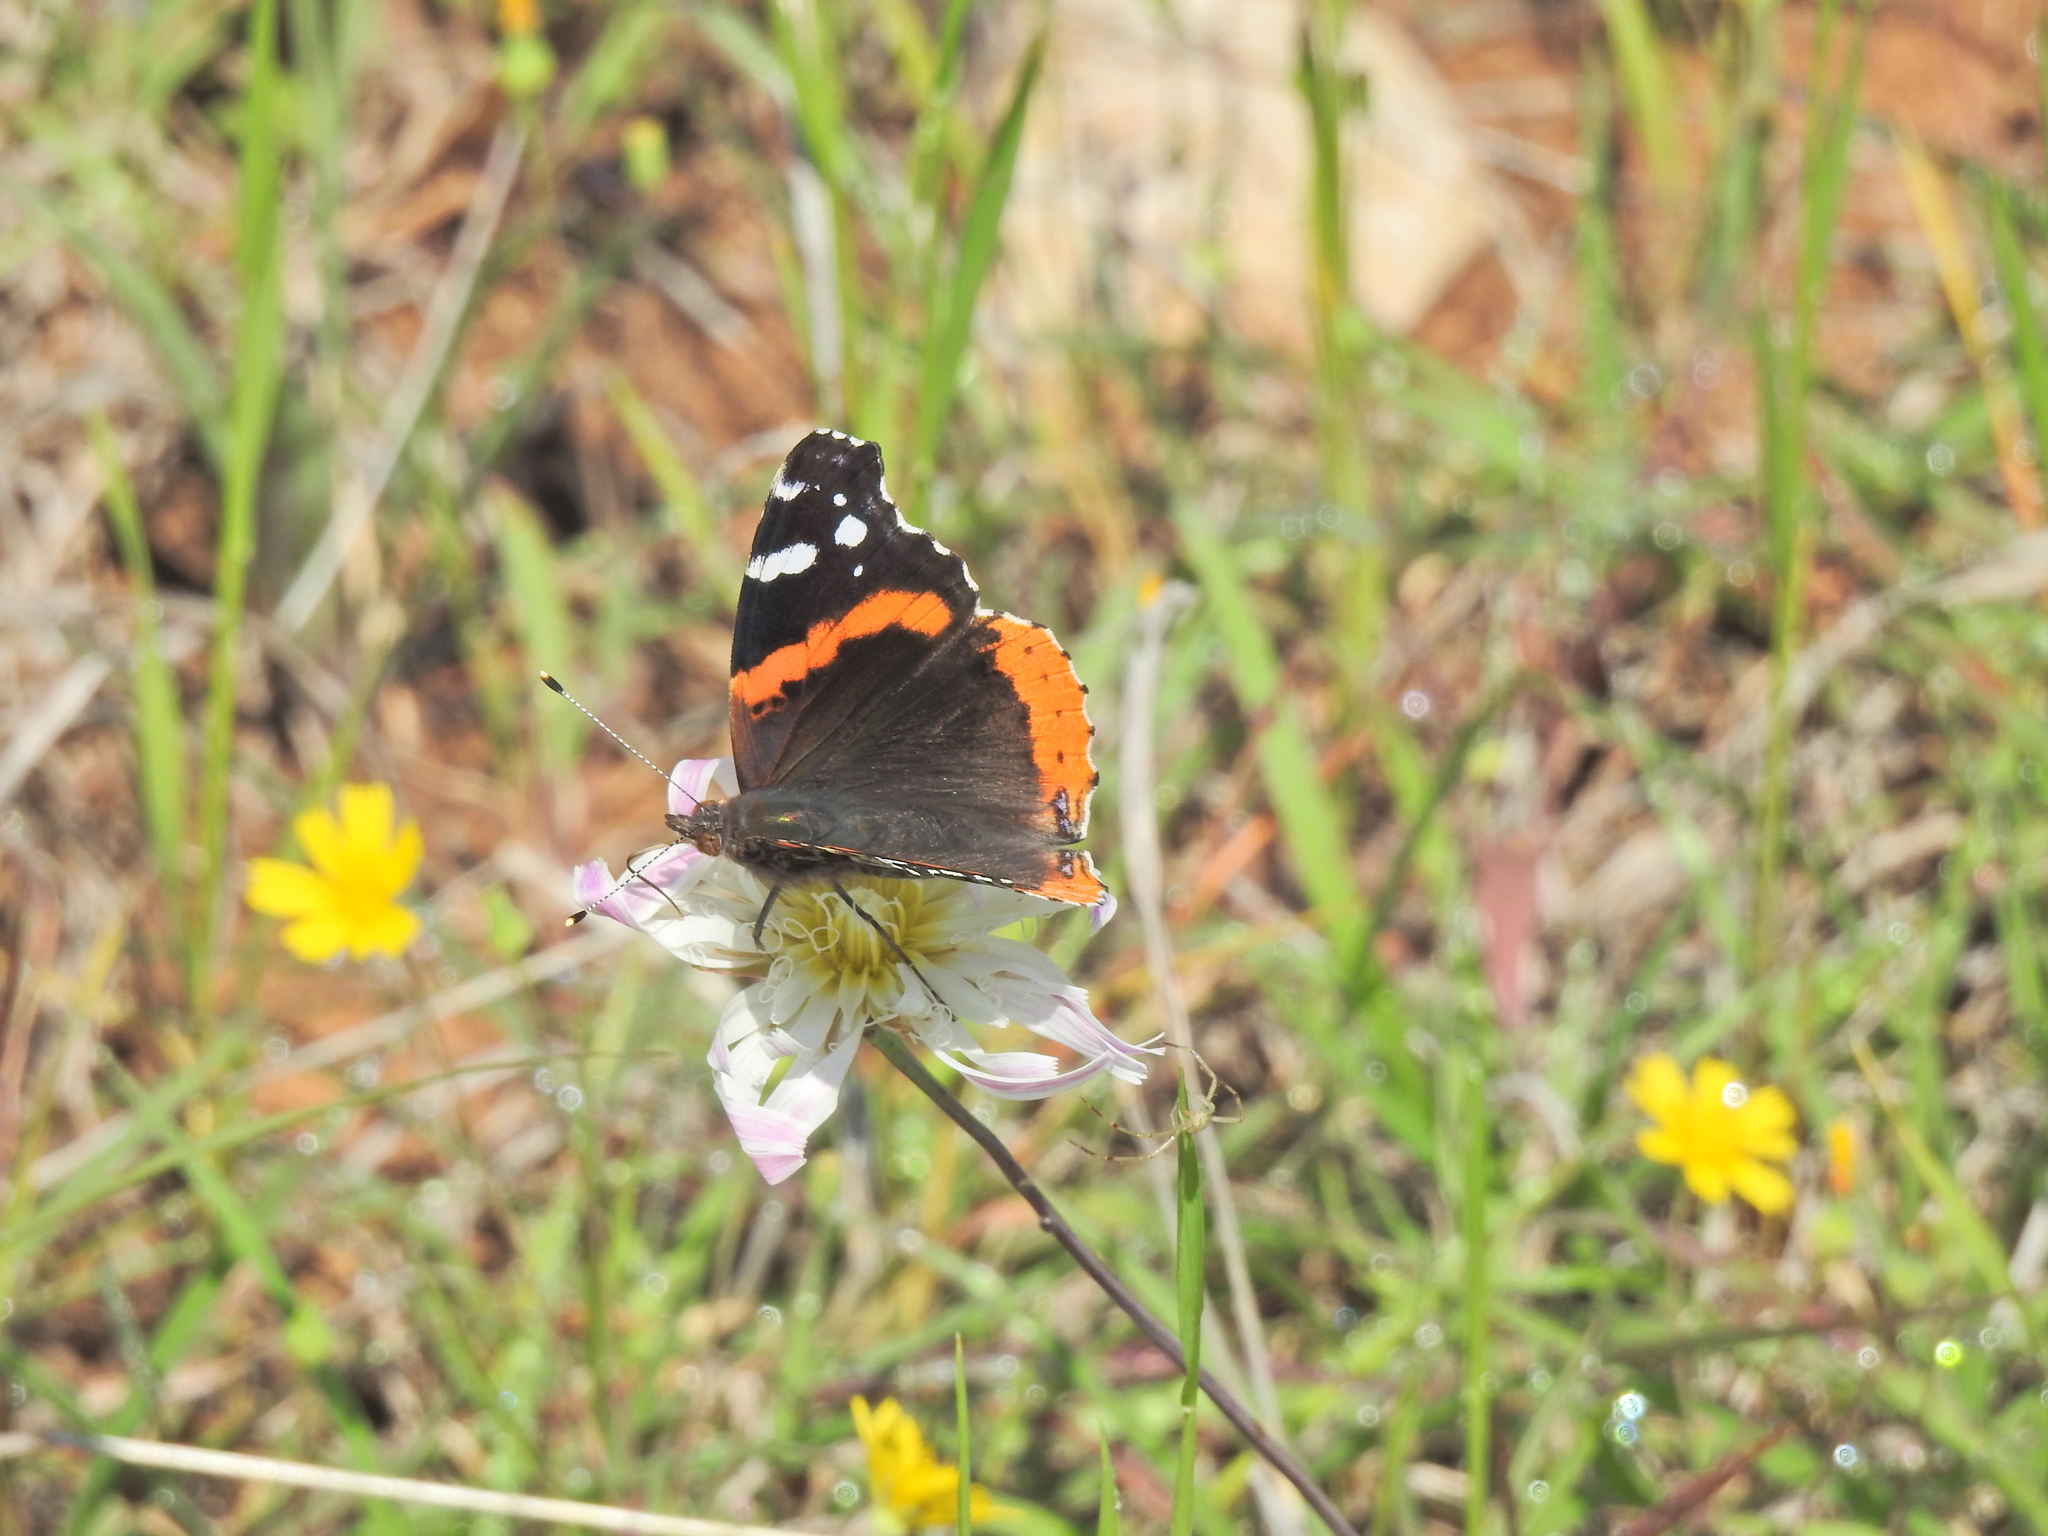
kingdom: Animalia
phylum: Arthropoda
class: Insecta
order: Lepidoptera
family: Nymphalidae
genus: Vanessa
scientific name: Vanessa atalanta
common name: Red admiral
